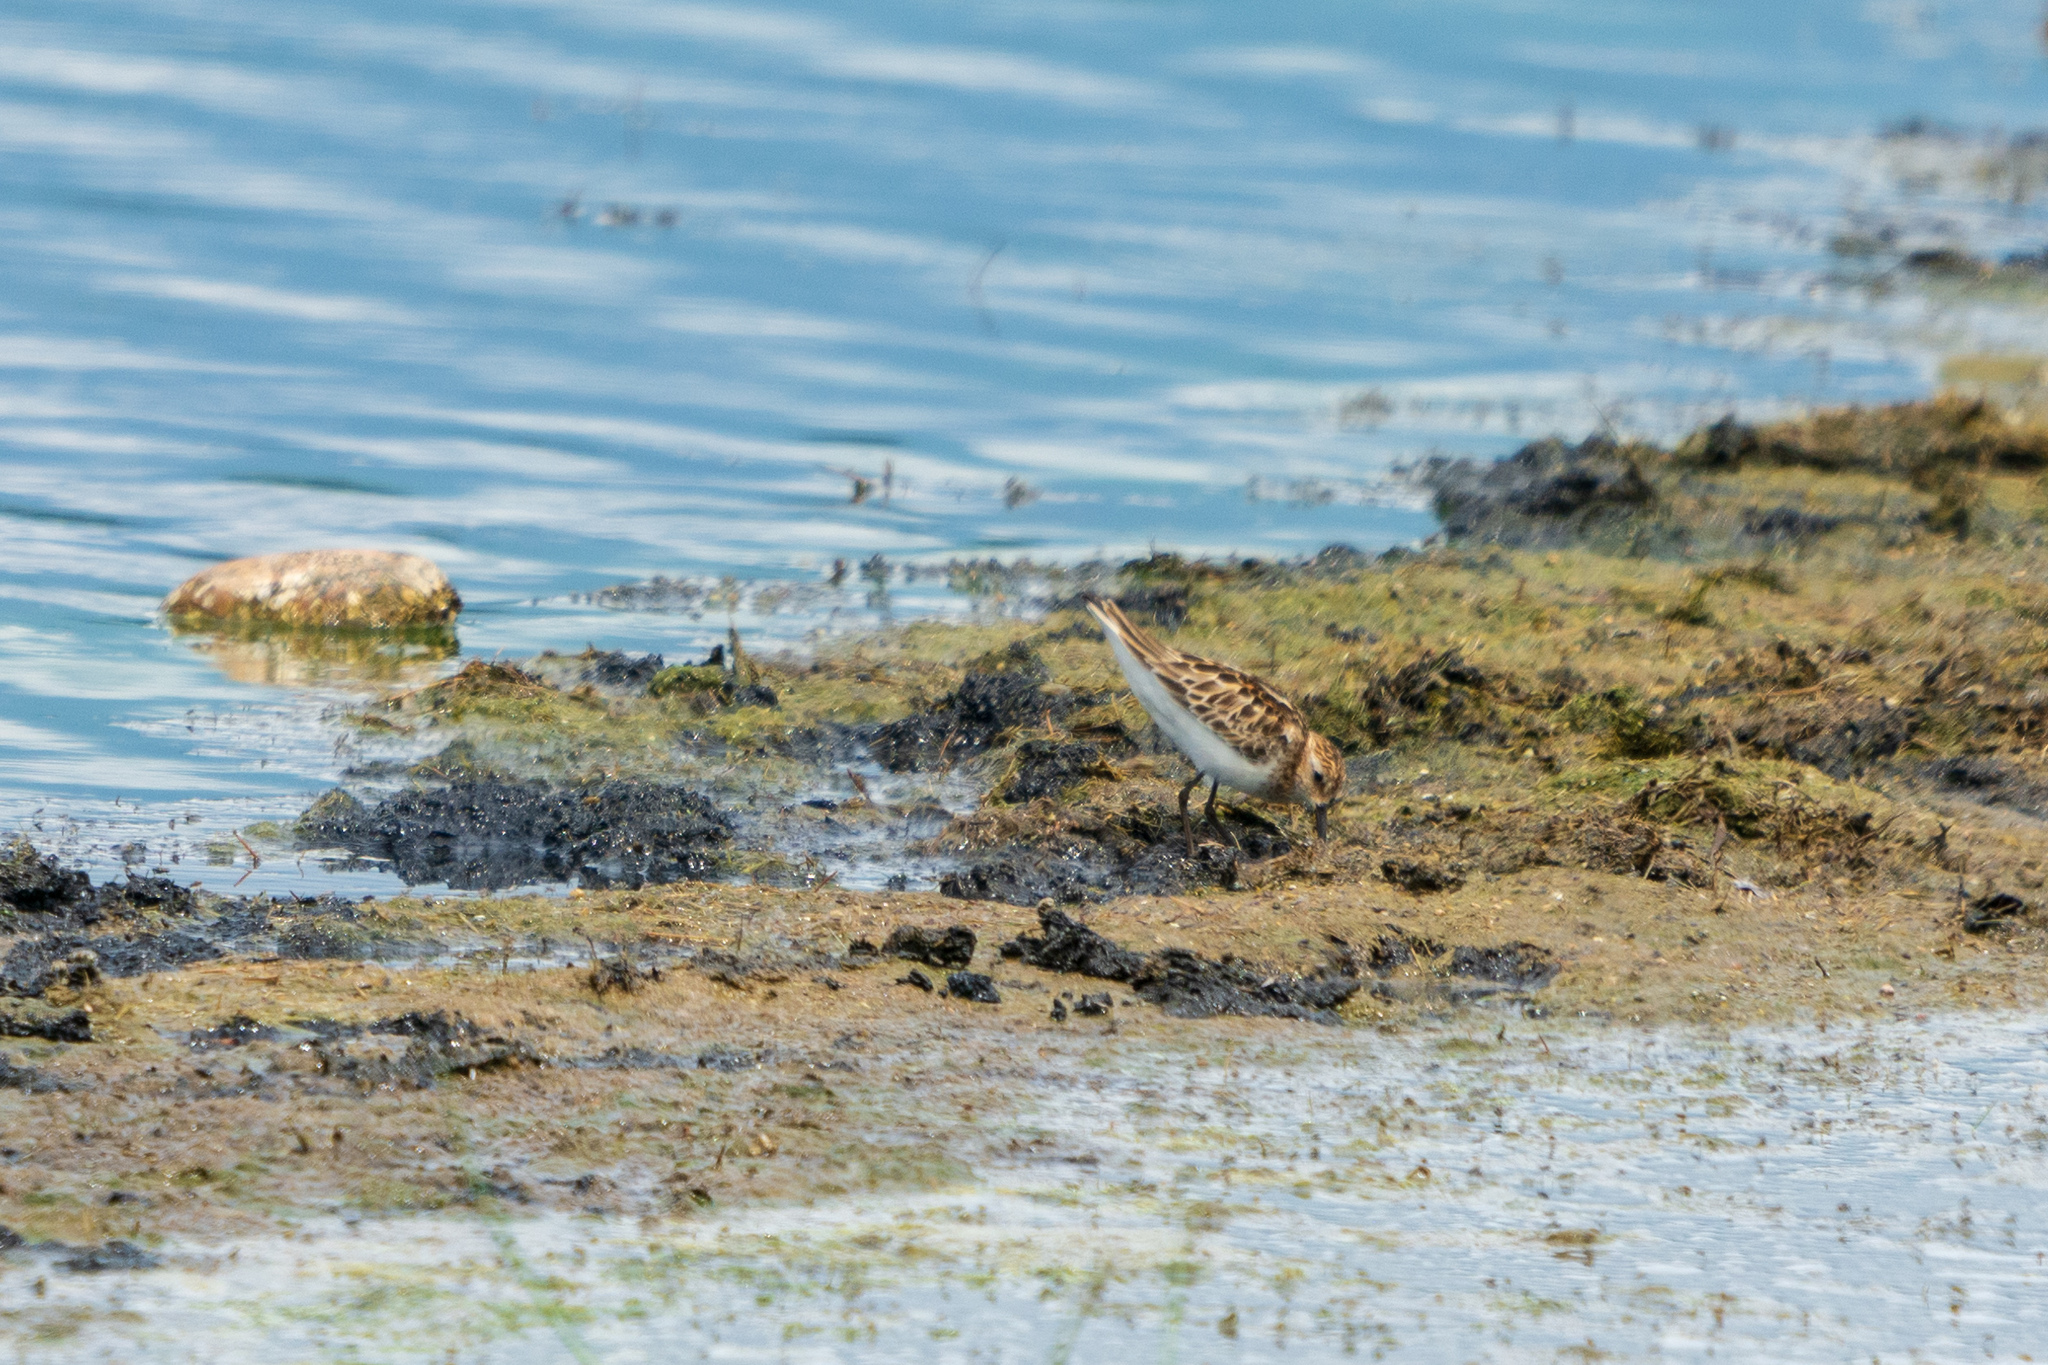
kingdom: Animalia
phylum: Chordata
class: Aves
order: Charadriiformes
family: Scolopacidae
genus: Calidris
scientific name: Calidris minuta
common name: Little stint
